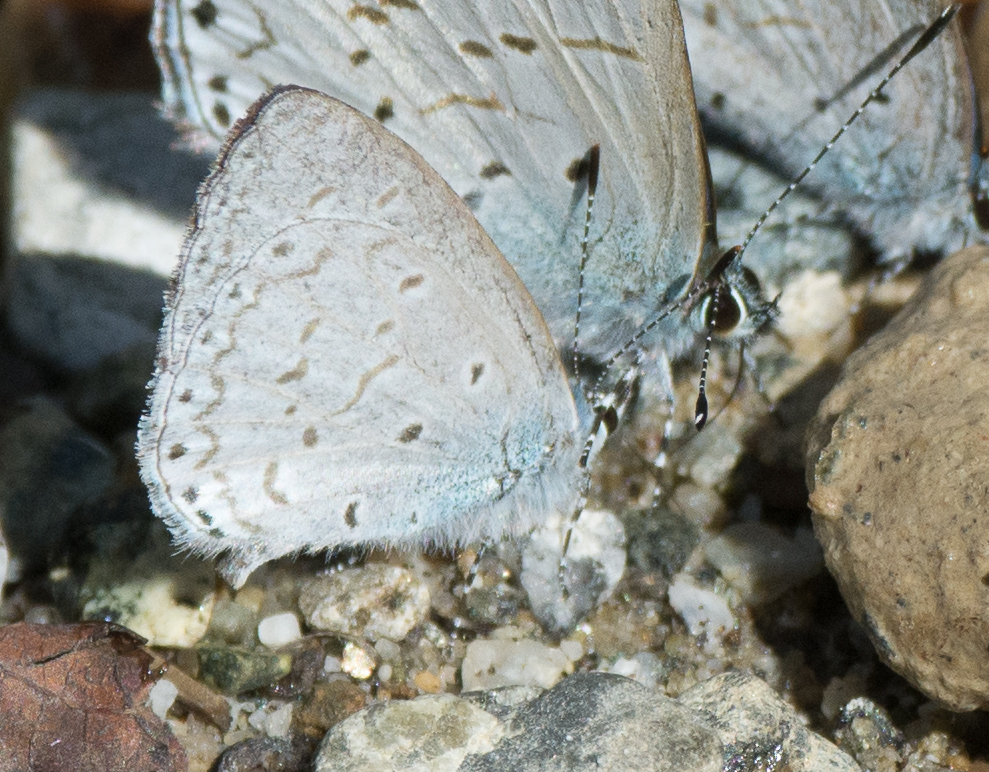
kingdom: Animalia
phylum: Arthropoda
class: Insecta
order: Lepidoptera
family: Lycaenidae
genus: Udara
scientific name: Udara dilectus
